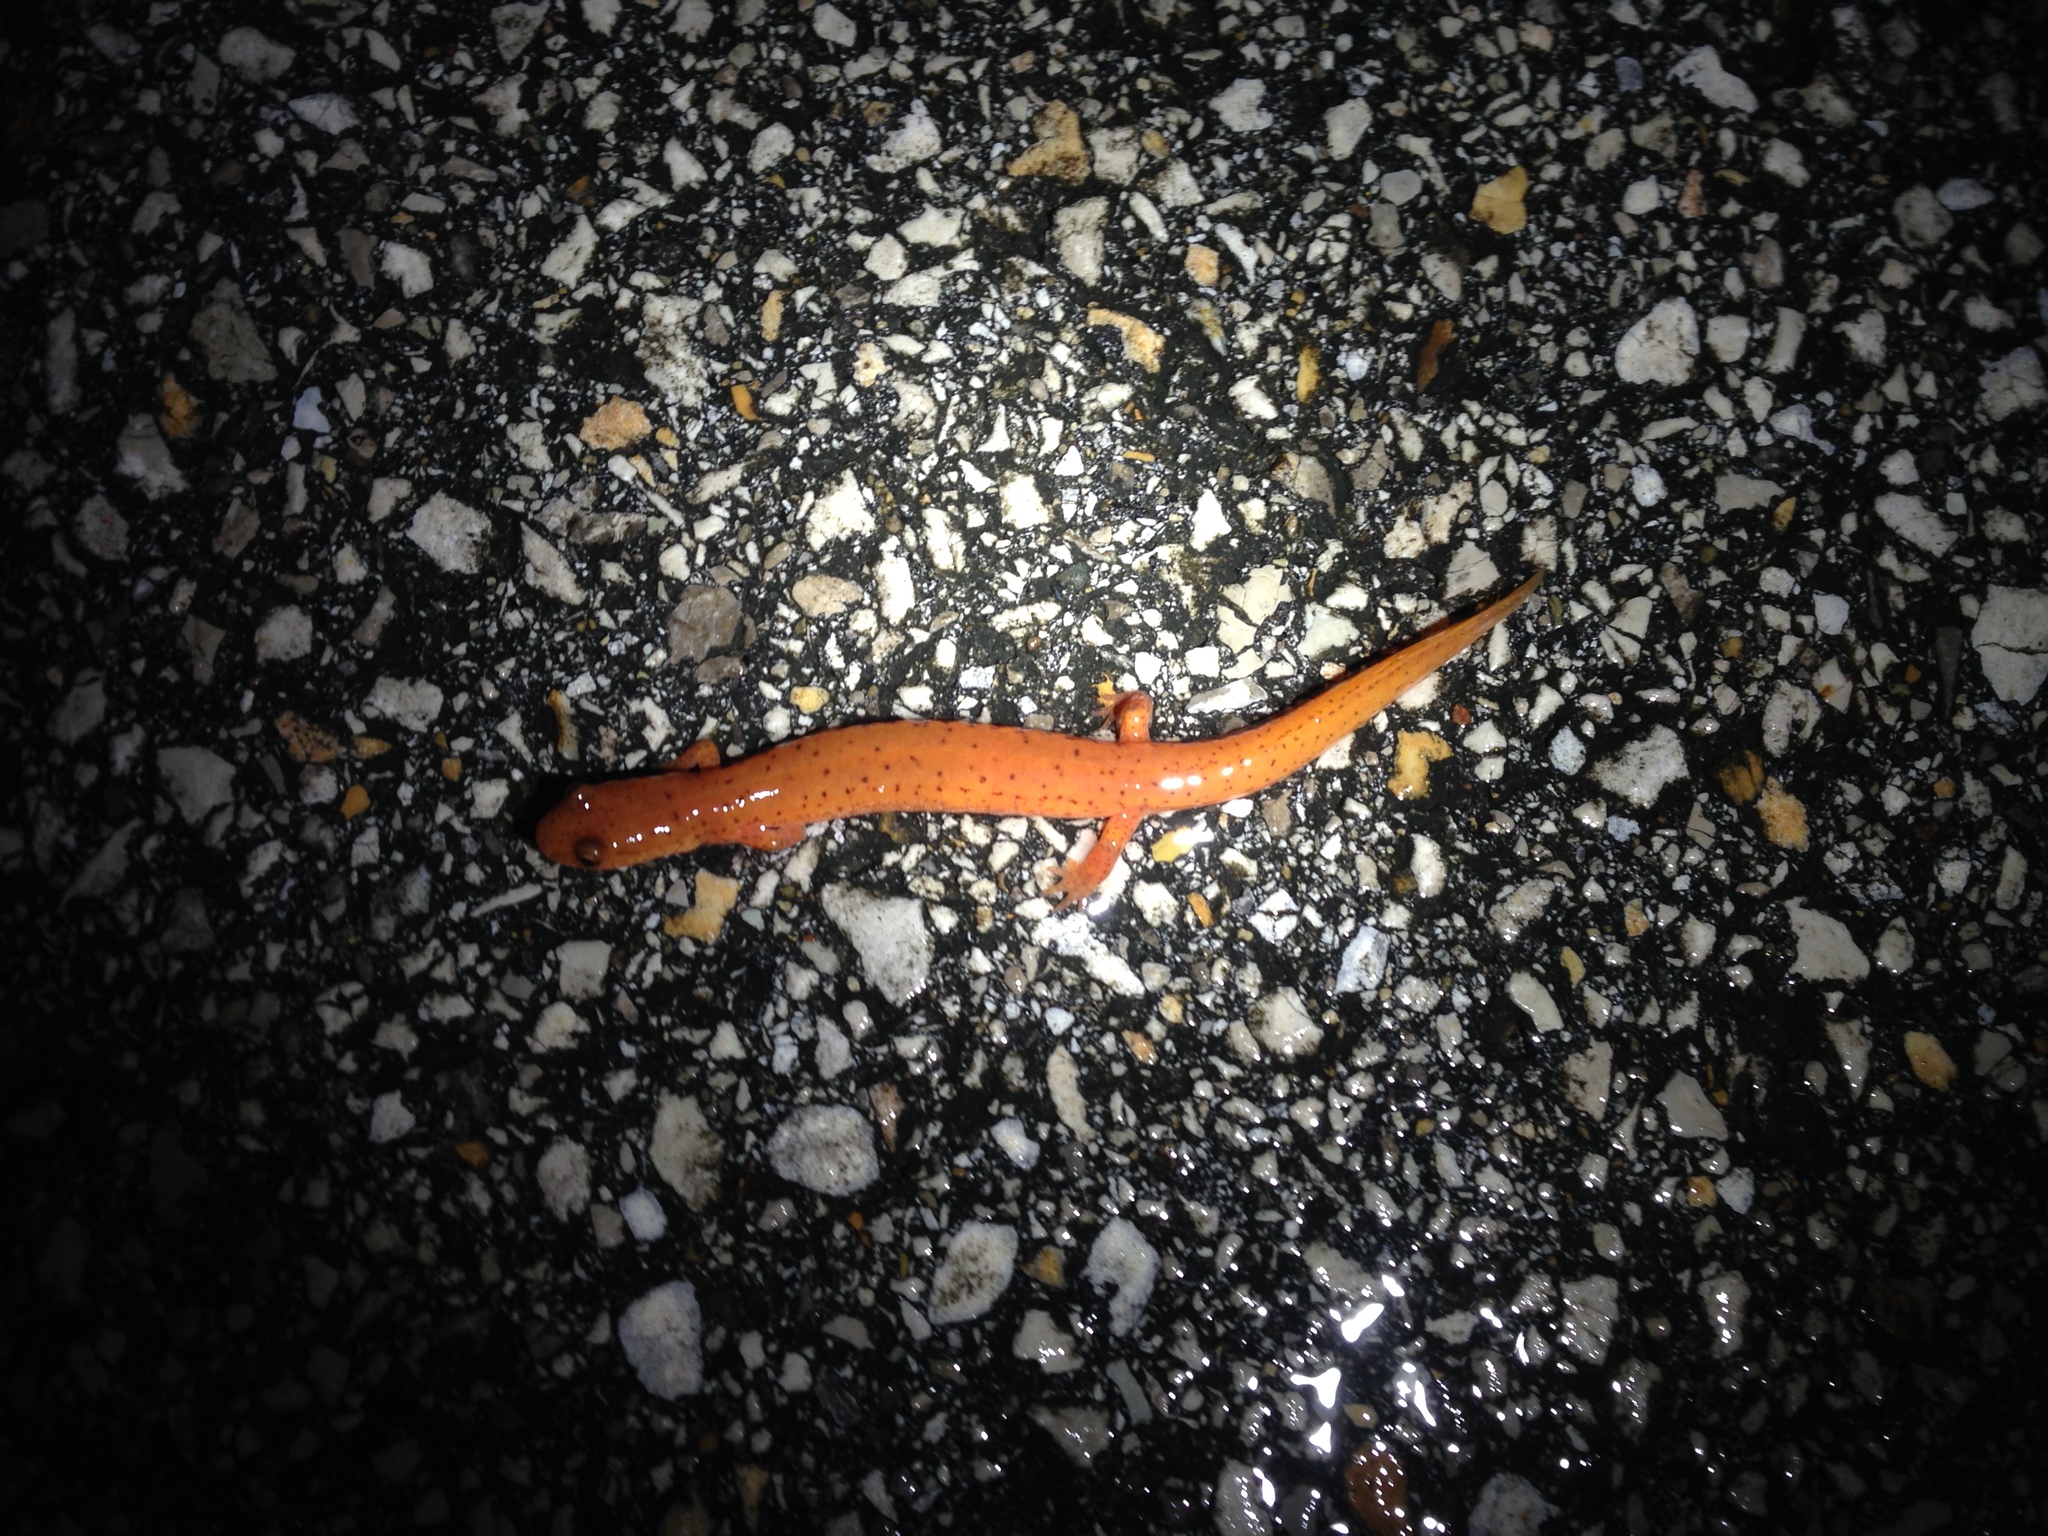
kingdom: Animalia
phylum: Chordata
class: Amphibia
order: Caudata
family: Plethodontidae
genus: Gyrinophilus
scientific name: Gyrinophilus porphyriticus
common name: Spring salamander
